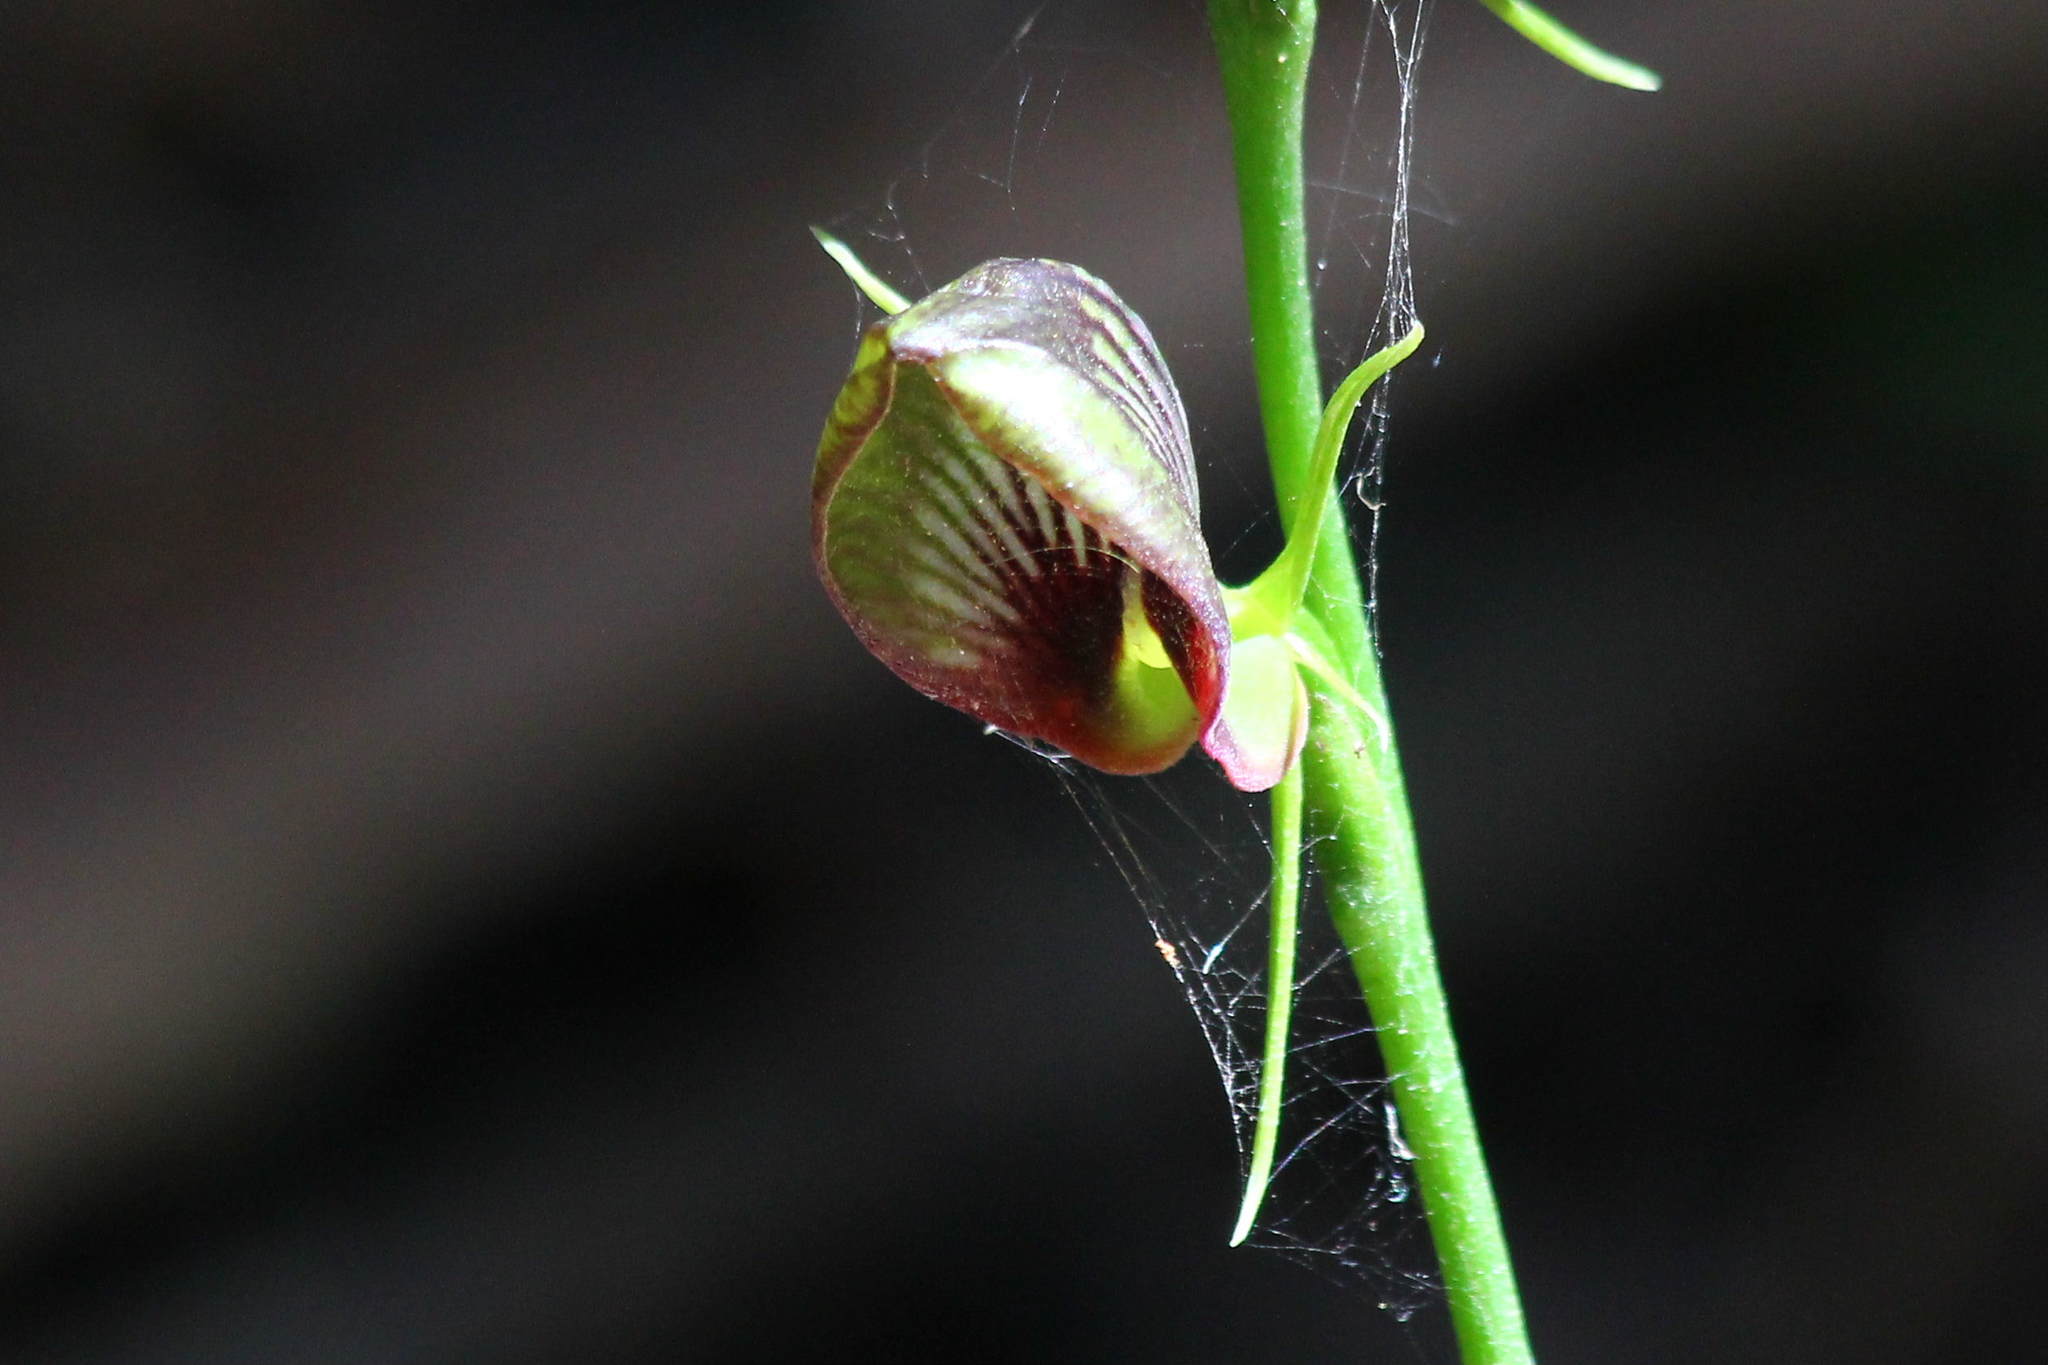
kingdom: Plantae
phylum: Tracheophyta
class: Liliopsida
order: Asparagales
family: Orchidaceae
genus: Cryptostylis
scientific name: Cryptostylis erecta
